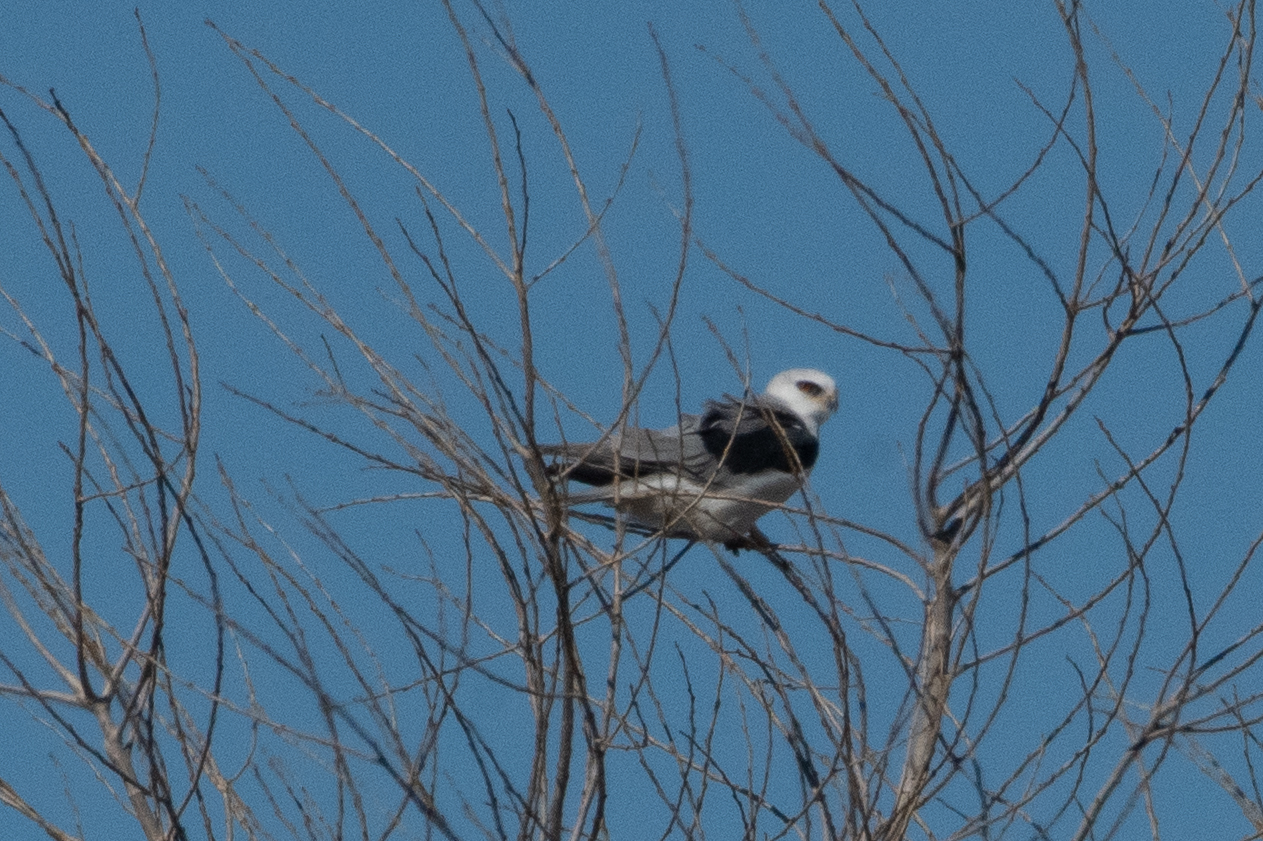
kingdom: Animalia
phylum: Chordata
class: Aves
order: Accipitriformes
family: Accipitridae
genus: Elanus
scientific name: Elanus leucurus
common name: White-tailed kite
